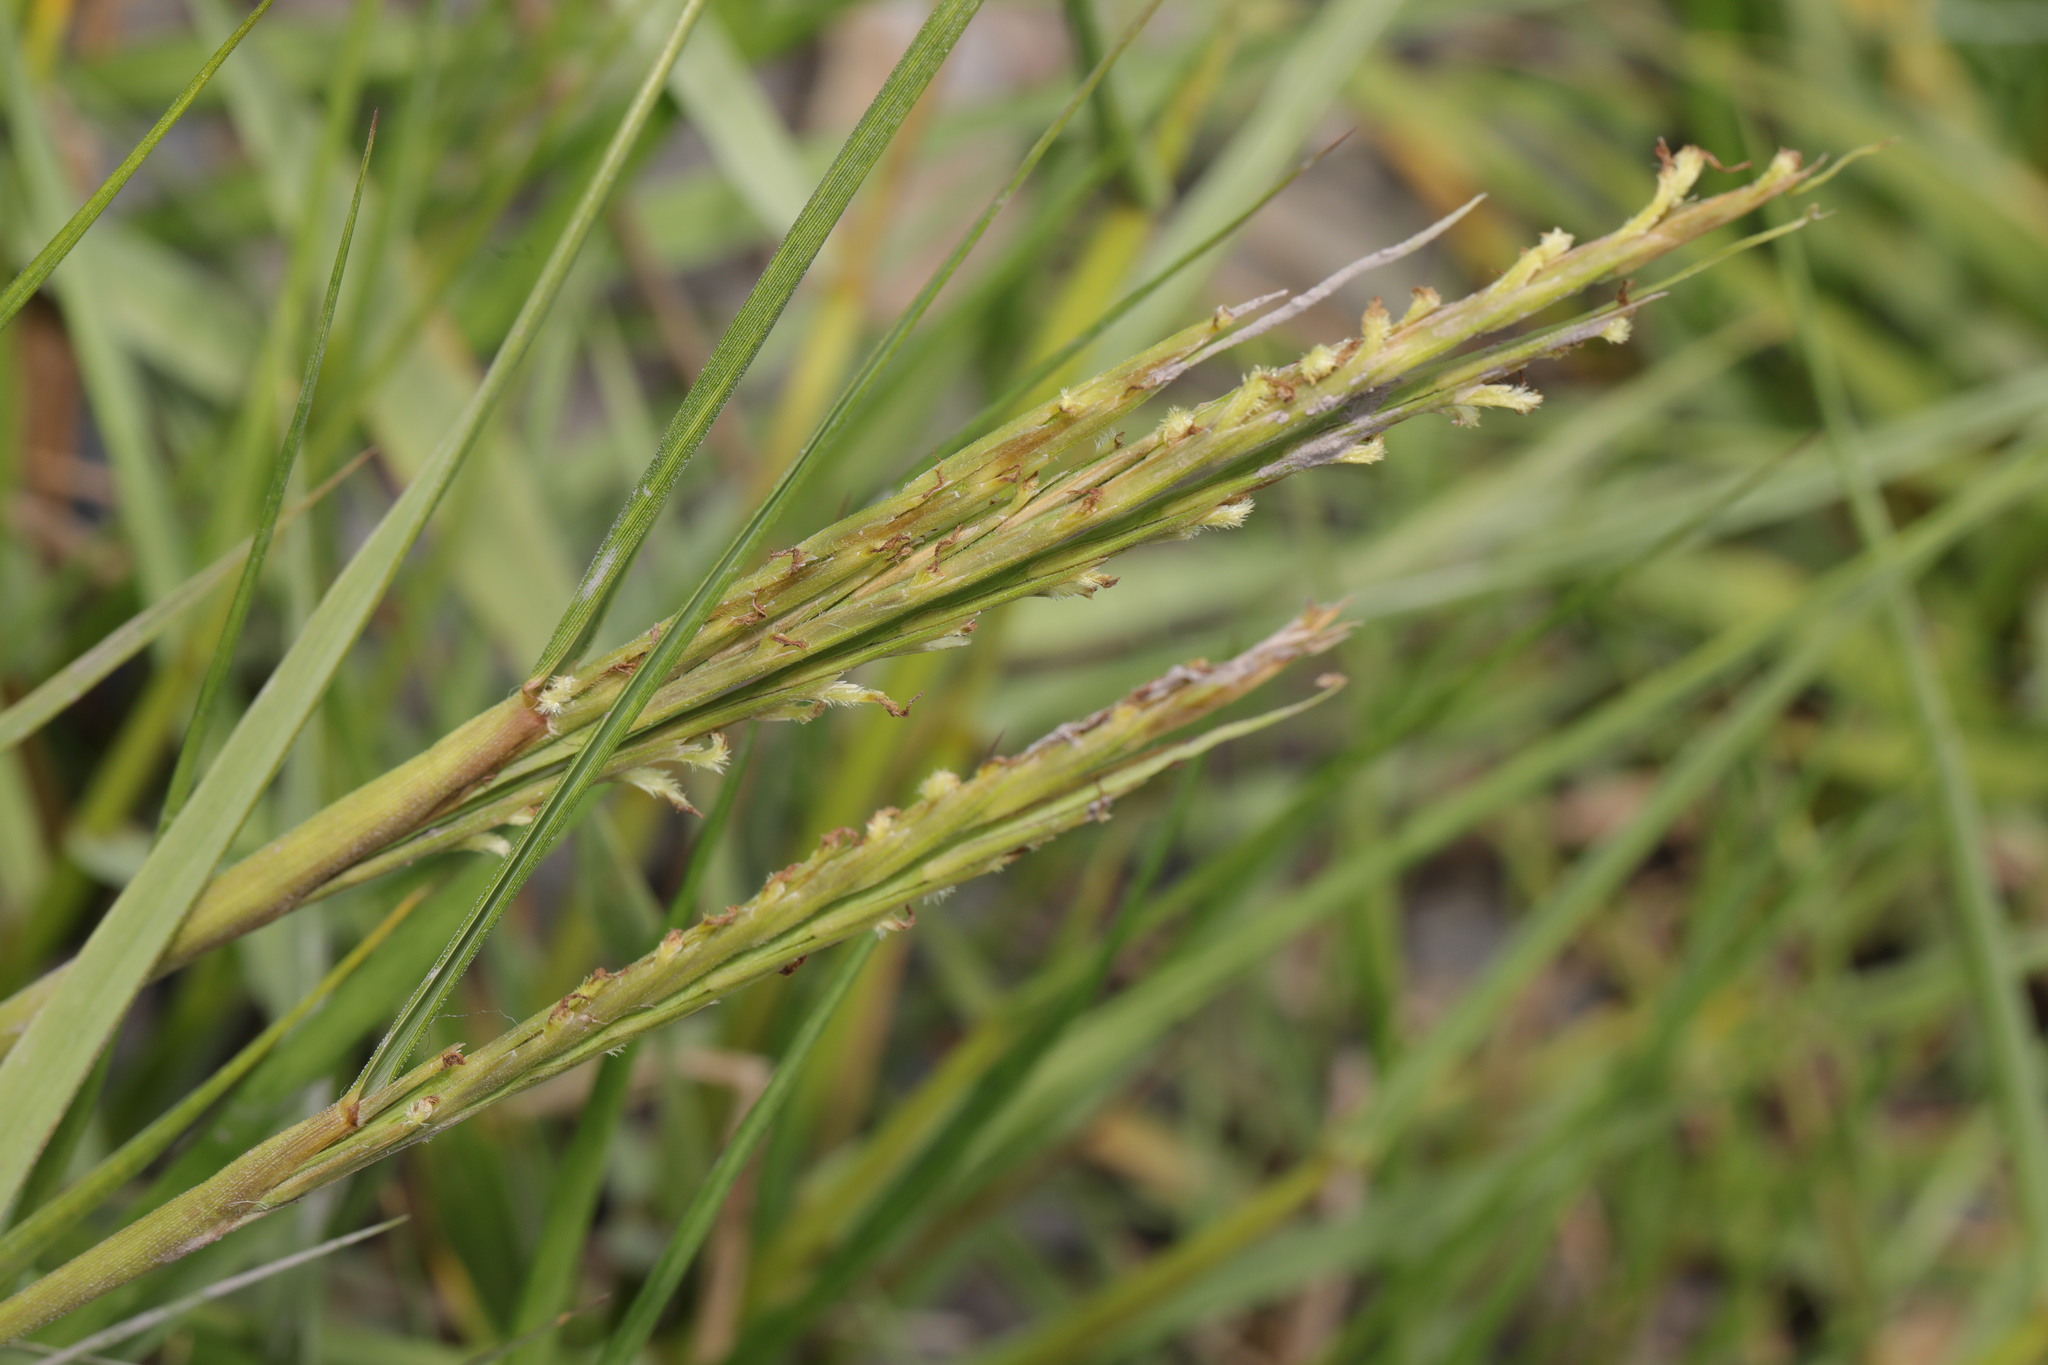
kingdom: Plantae
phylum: Tracheophyta
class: Liliopsida
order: Poales
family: Poaceae
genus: Sporobolus
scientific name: Sporobolus anglicus
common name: English cordgrass
